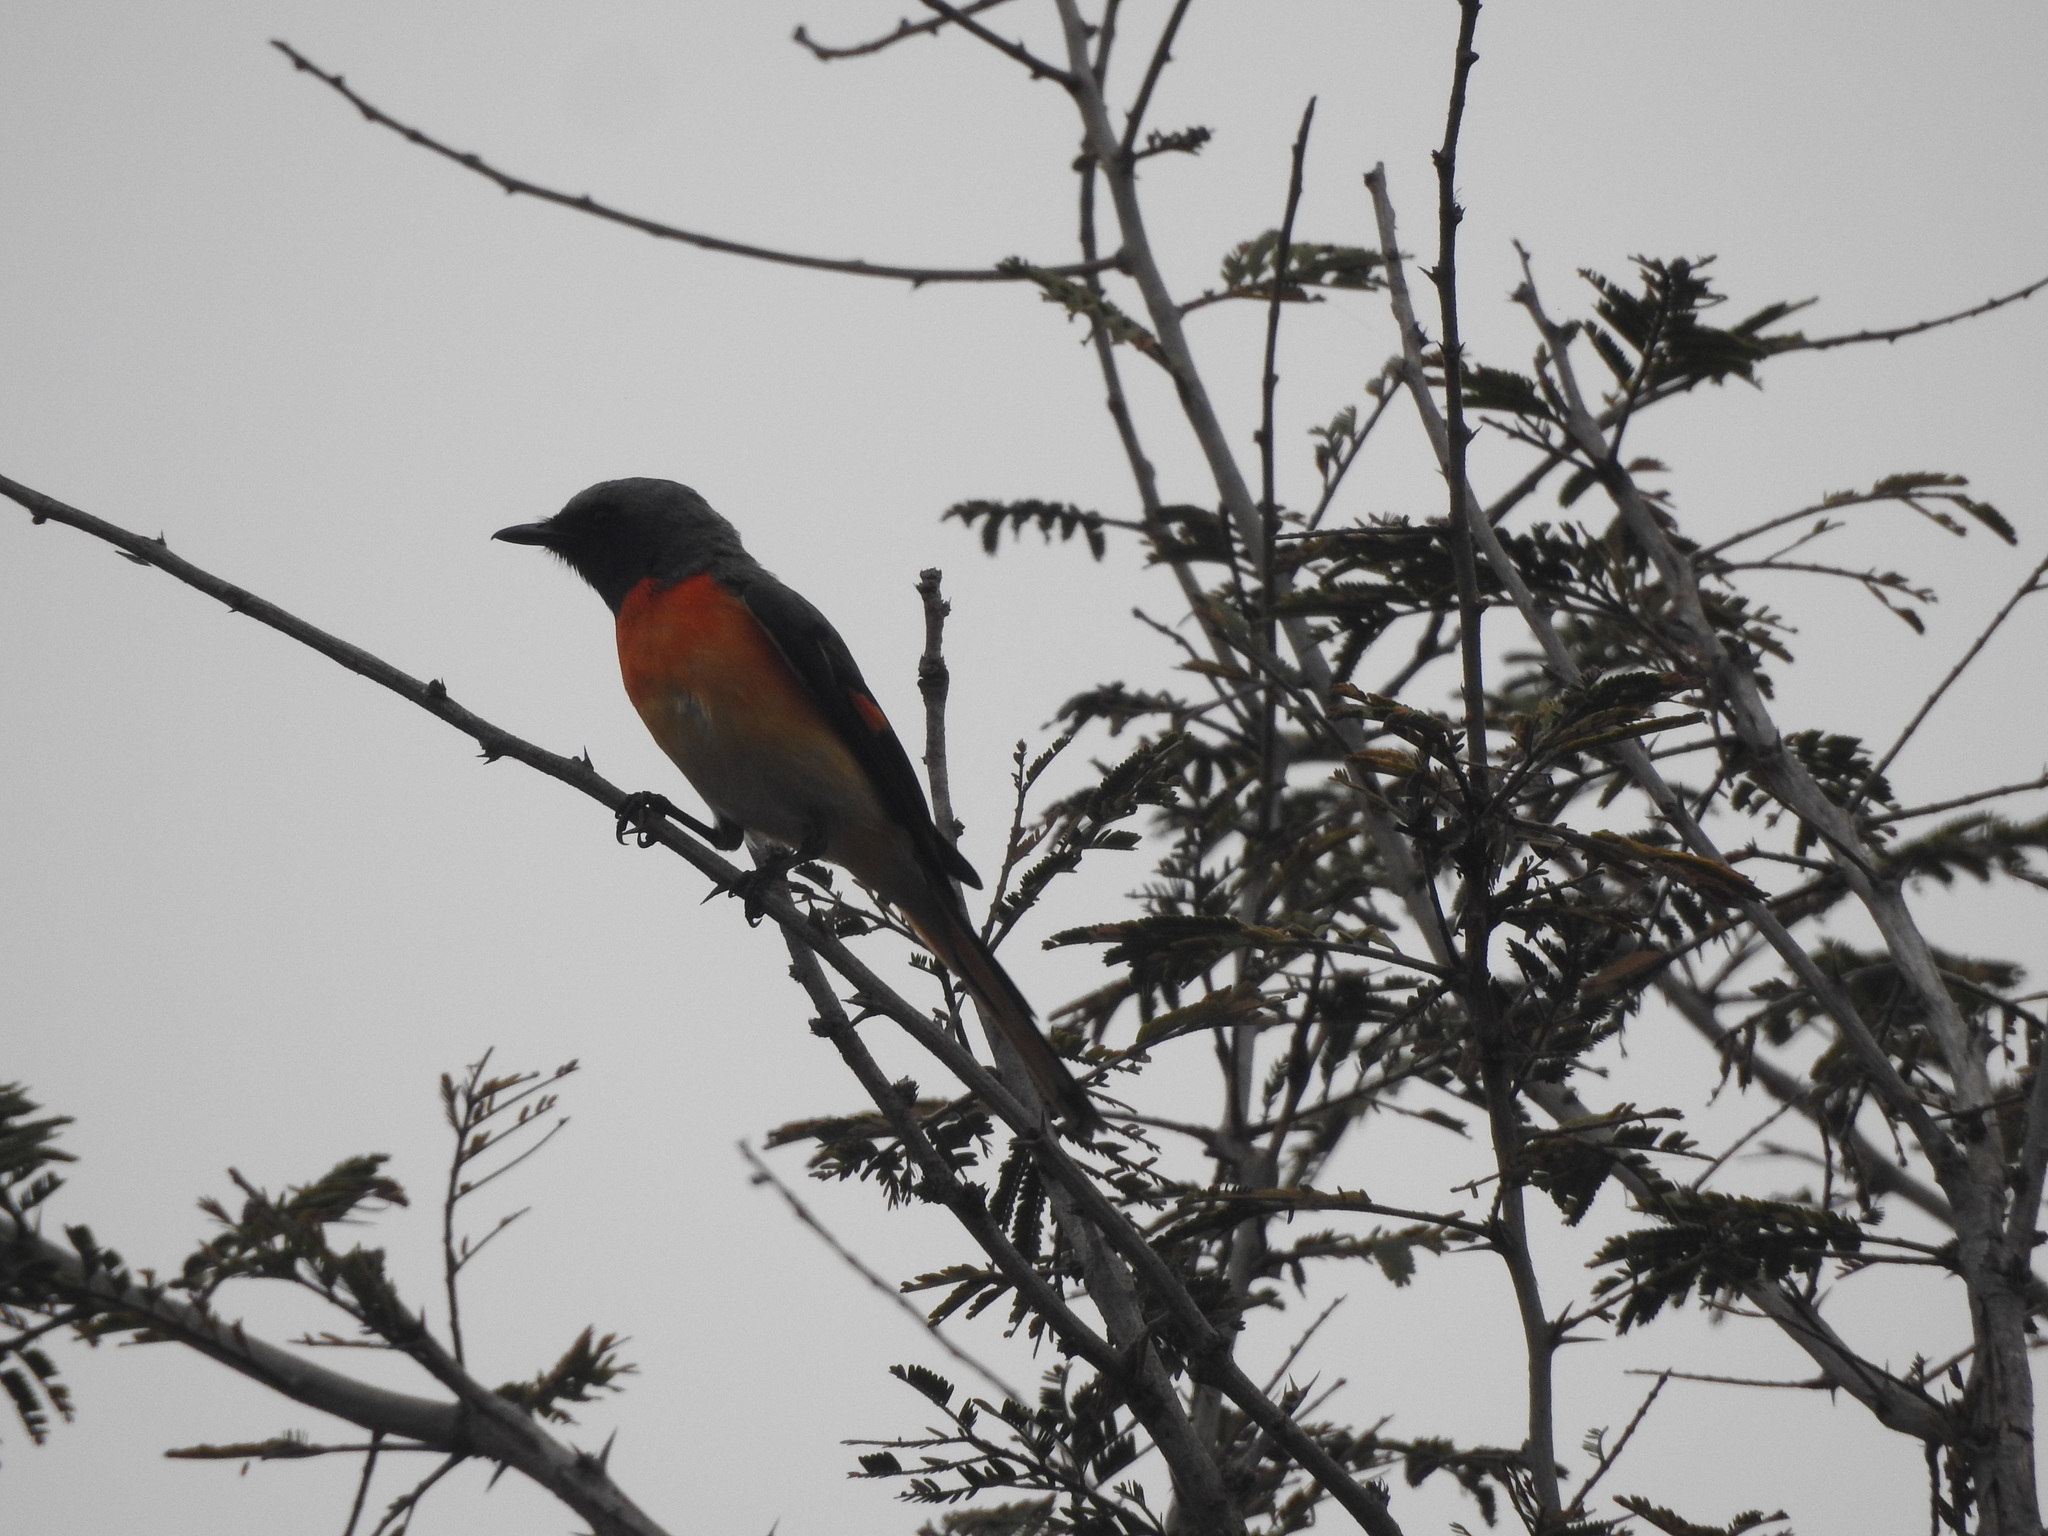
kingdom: Animalia
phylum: Chordata
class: Aves
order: Passeriformes
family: Campephagidae
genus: Pericrocotus
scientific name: Pericrocotus cinnamomeus
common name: Small minivet
